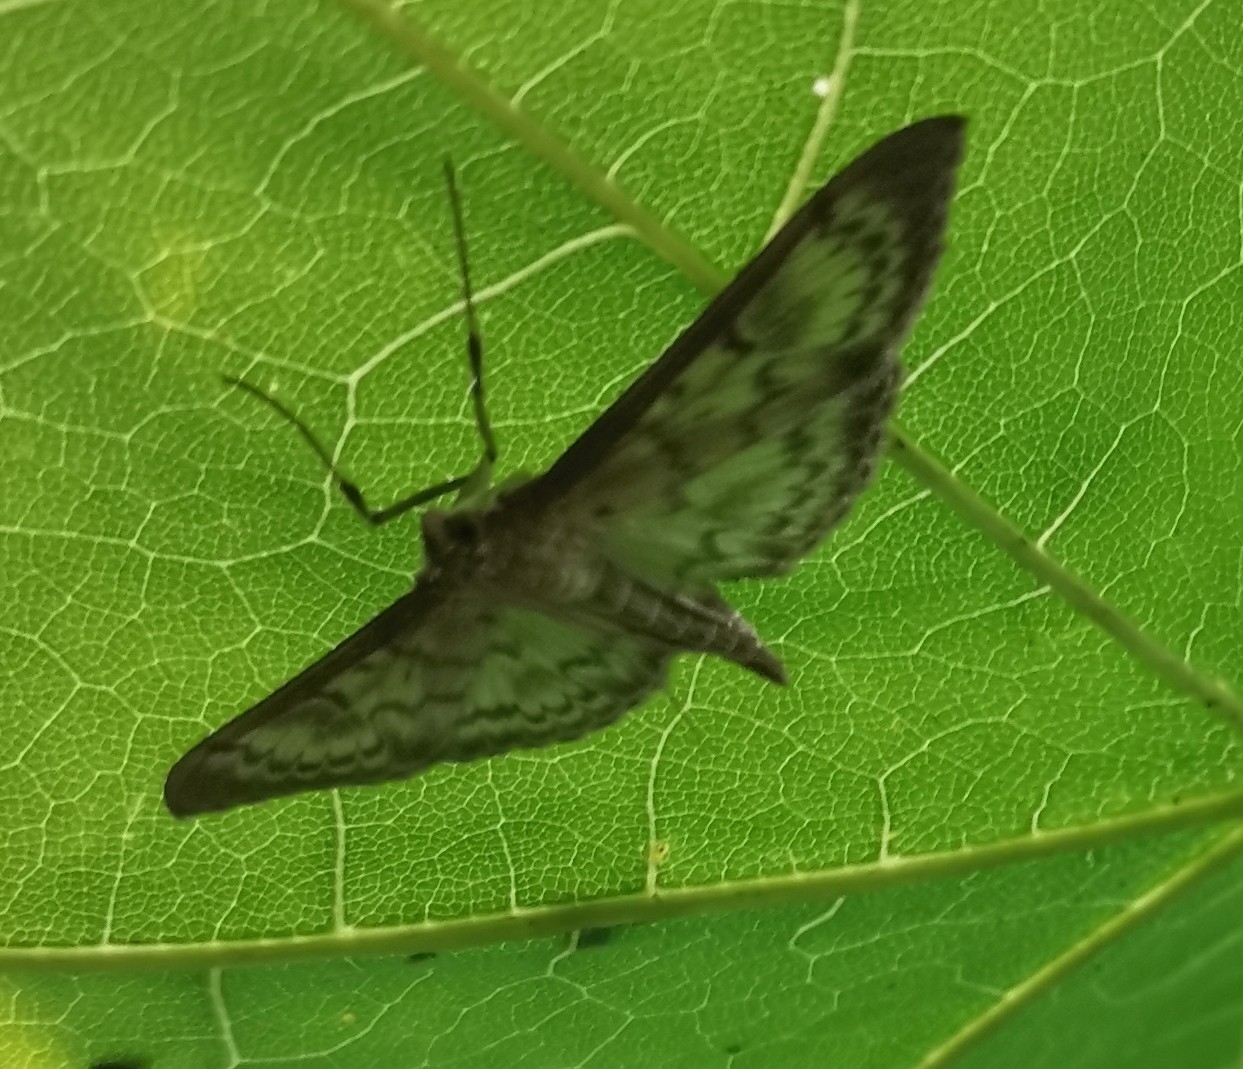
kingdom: Animalia
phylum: Arthropoda
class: Insecta
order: Lepidoptera
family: Crambidae
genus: Patania
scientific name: Patania ruralis
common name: Mother of pearl
